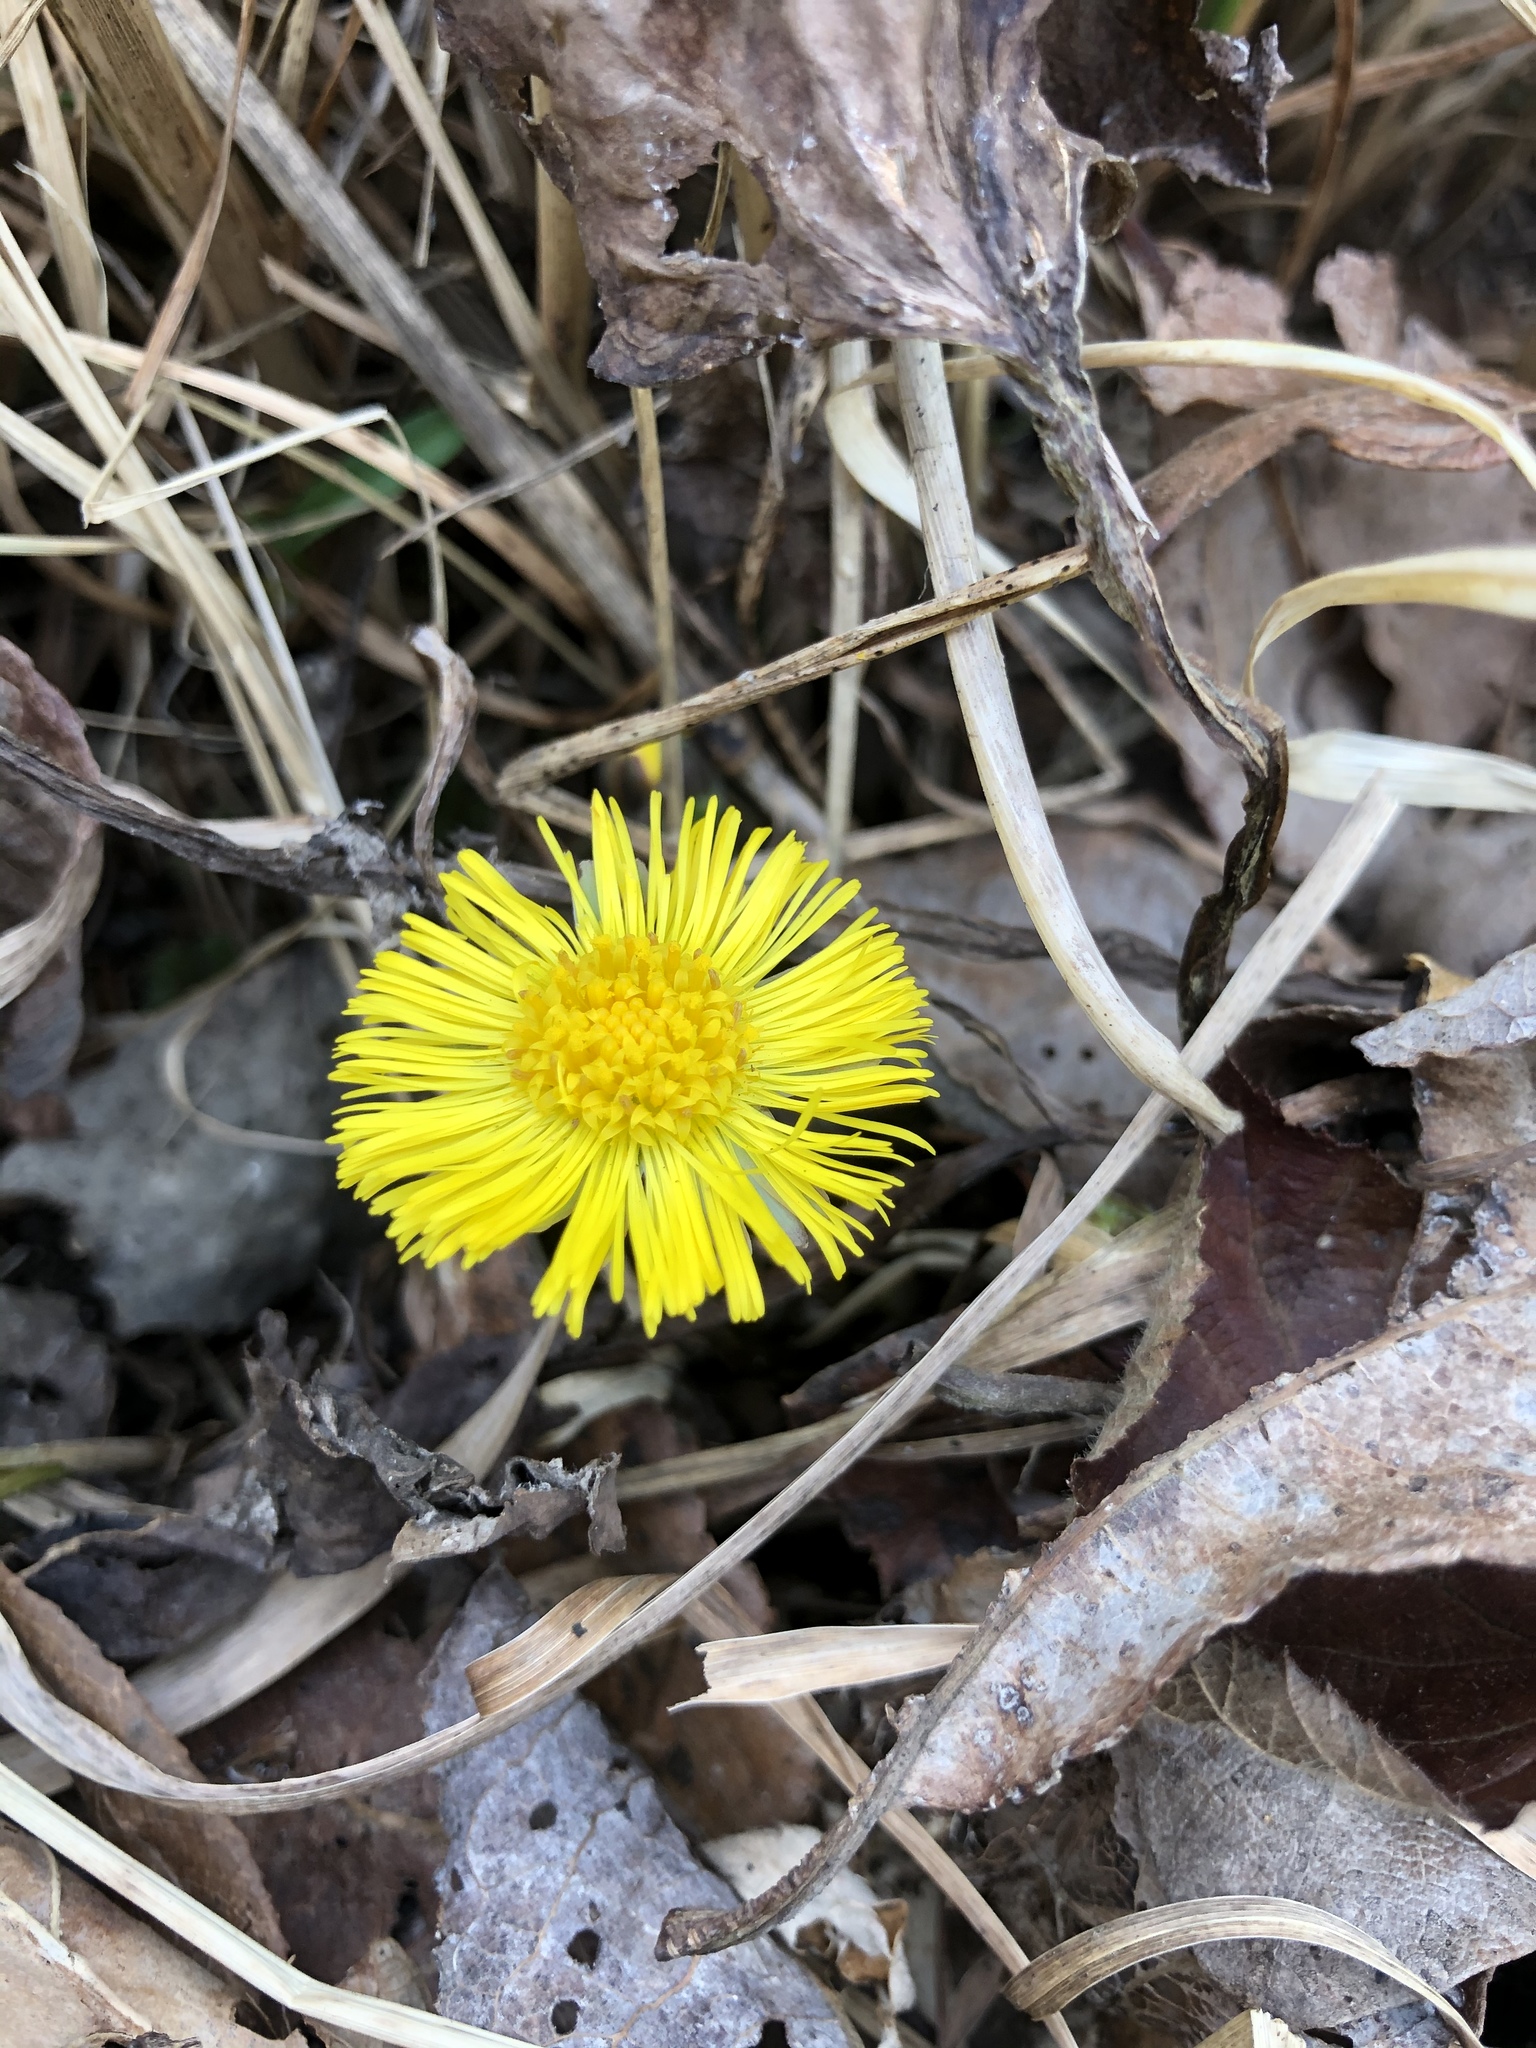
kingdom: Plantae
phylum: Tracheophyta
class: Magnoliopsida
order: Asterales
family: Asteraceae
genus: Tussilago
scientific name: Tussilago farfara
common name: Coltsfoot
